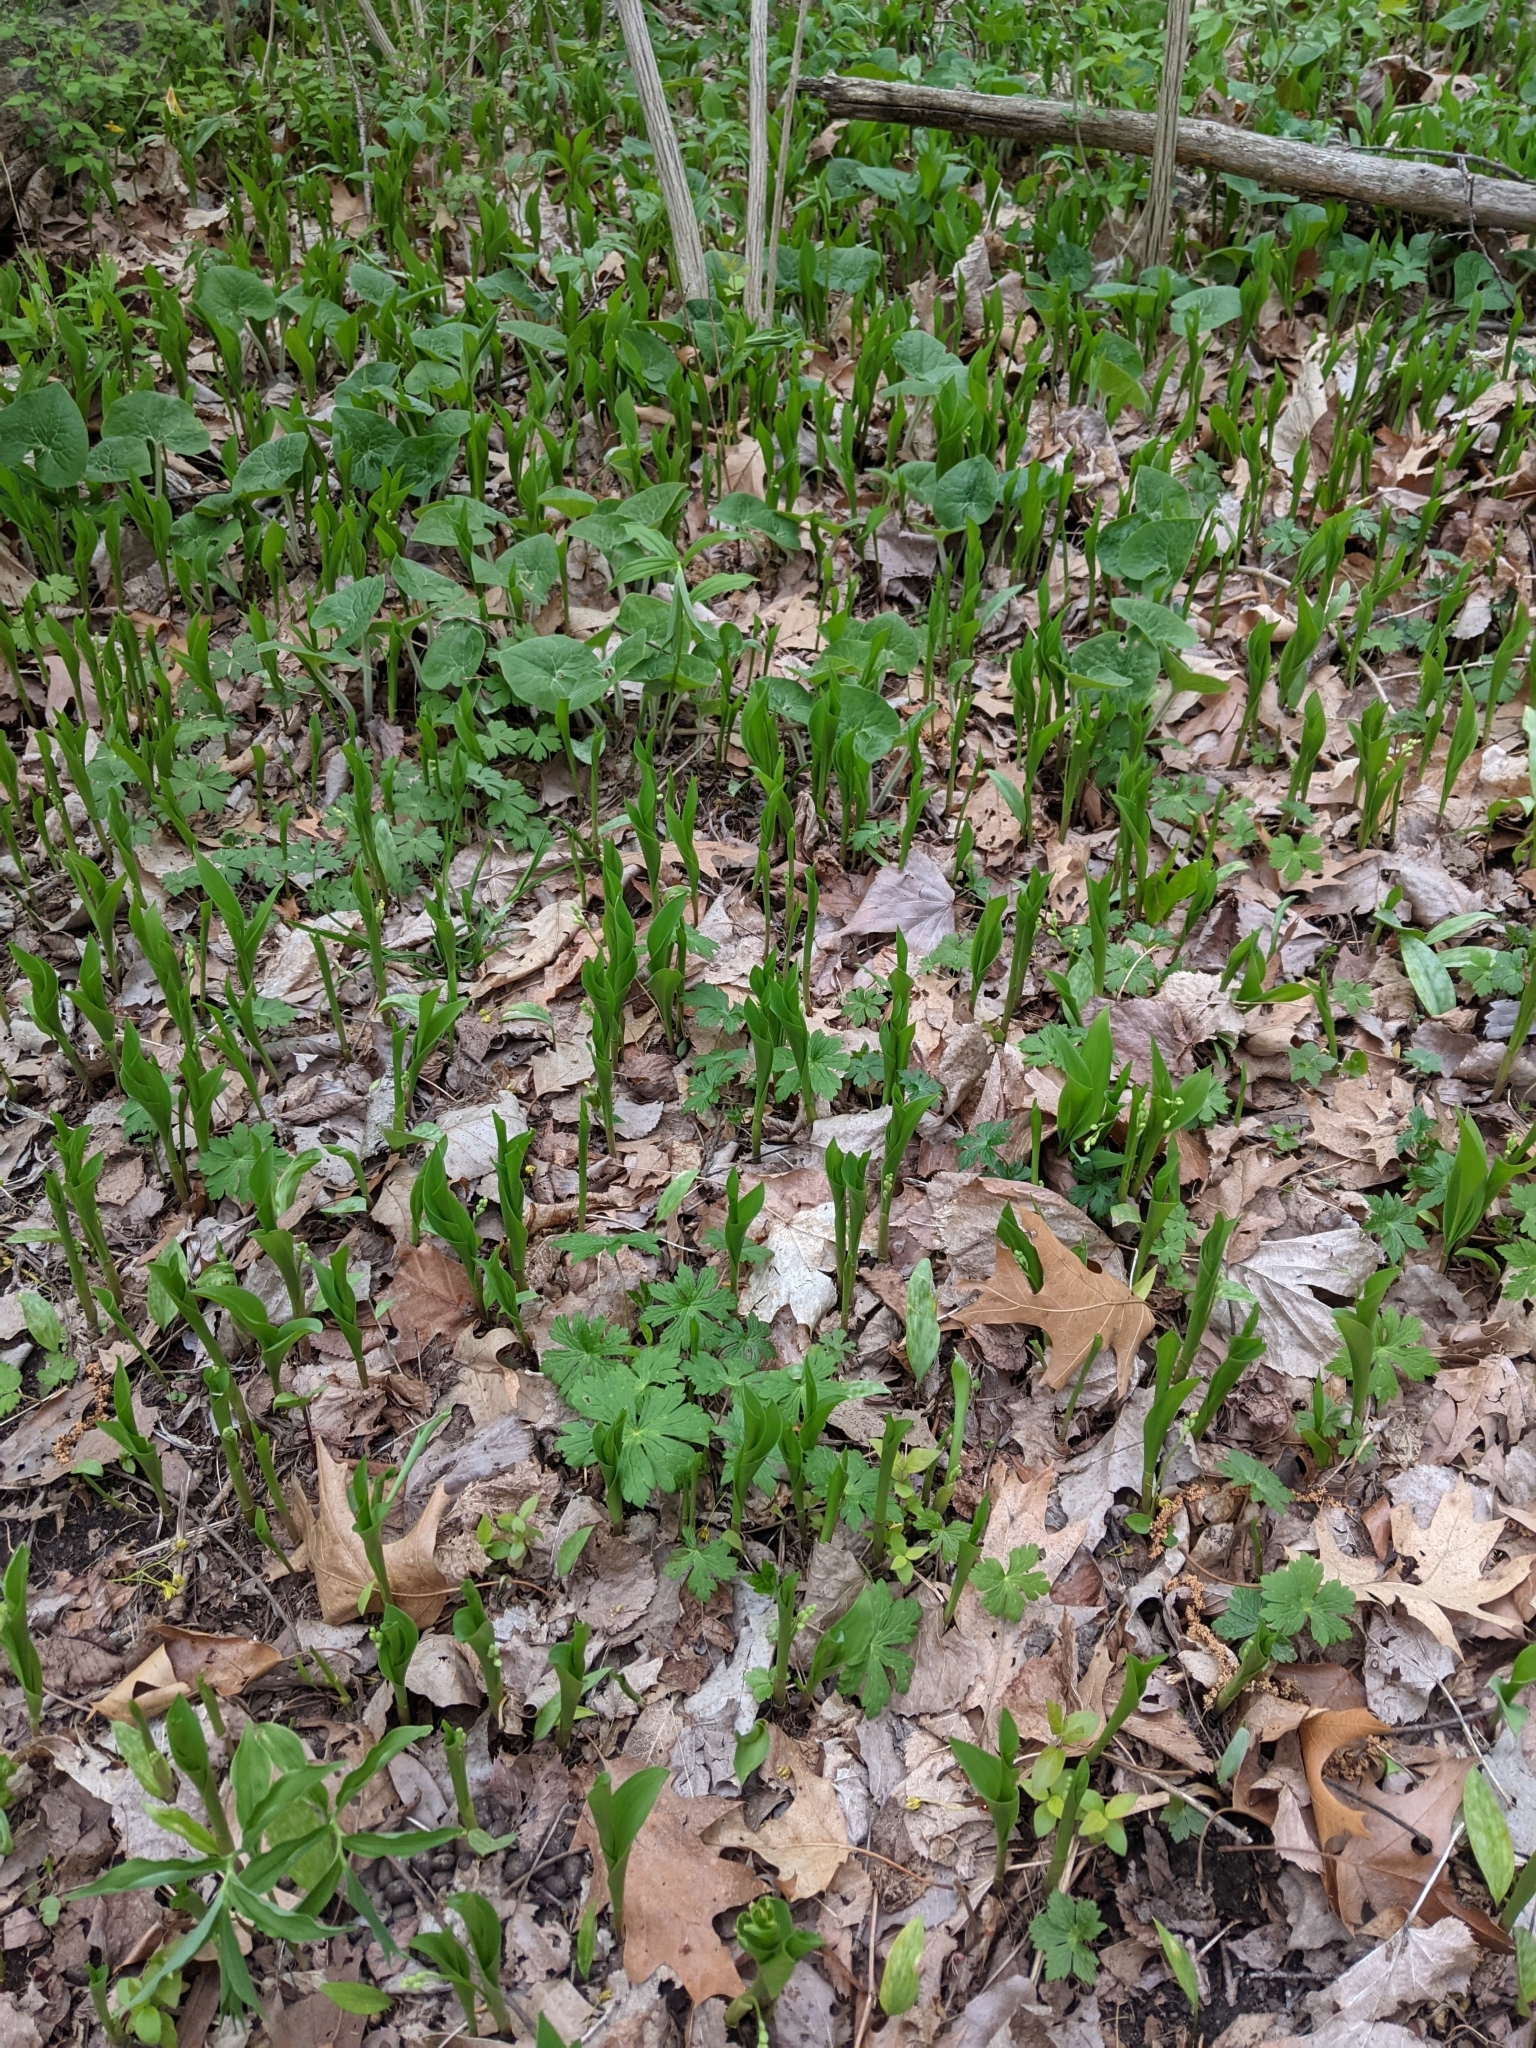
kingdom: Plantae
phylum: Tracheophyta
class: Liliopsida
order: Asparagales
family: Asparagaceae
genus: Convallaria
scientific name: Convallaria majalis
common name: Lily-of-the-valley
